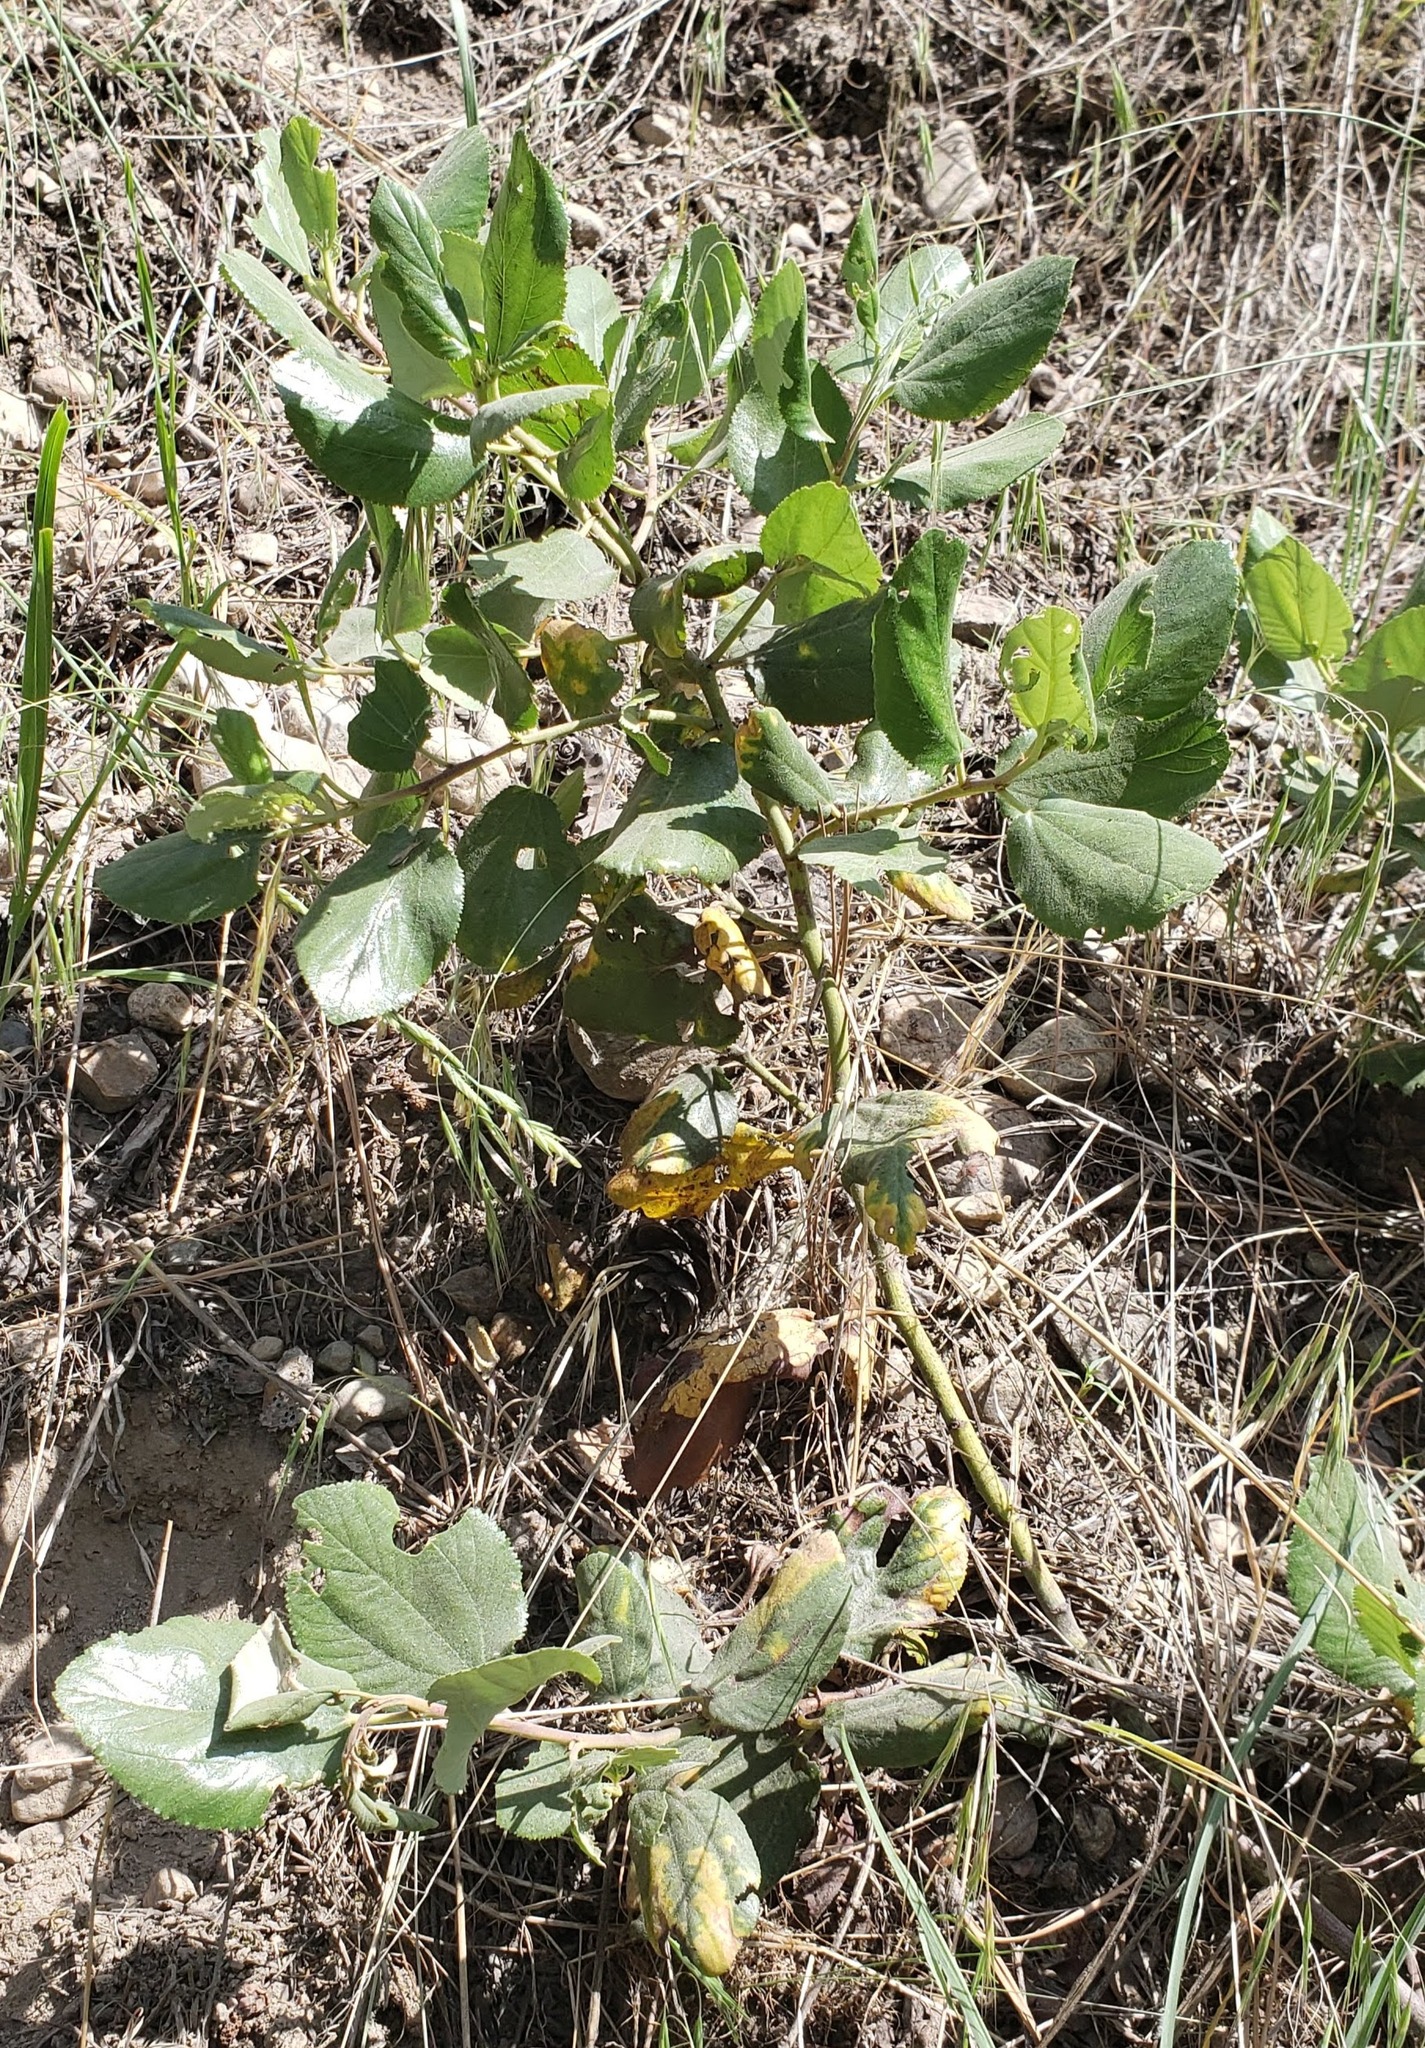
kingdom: Plantae
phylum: Tracheophyta
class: Magnoliopsida
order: Rosales
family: Rhamnaceae
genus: Ceanothus
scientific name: Ceanothus velutinus
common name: Snowbrush
